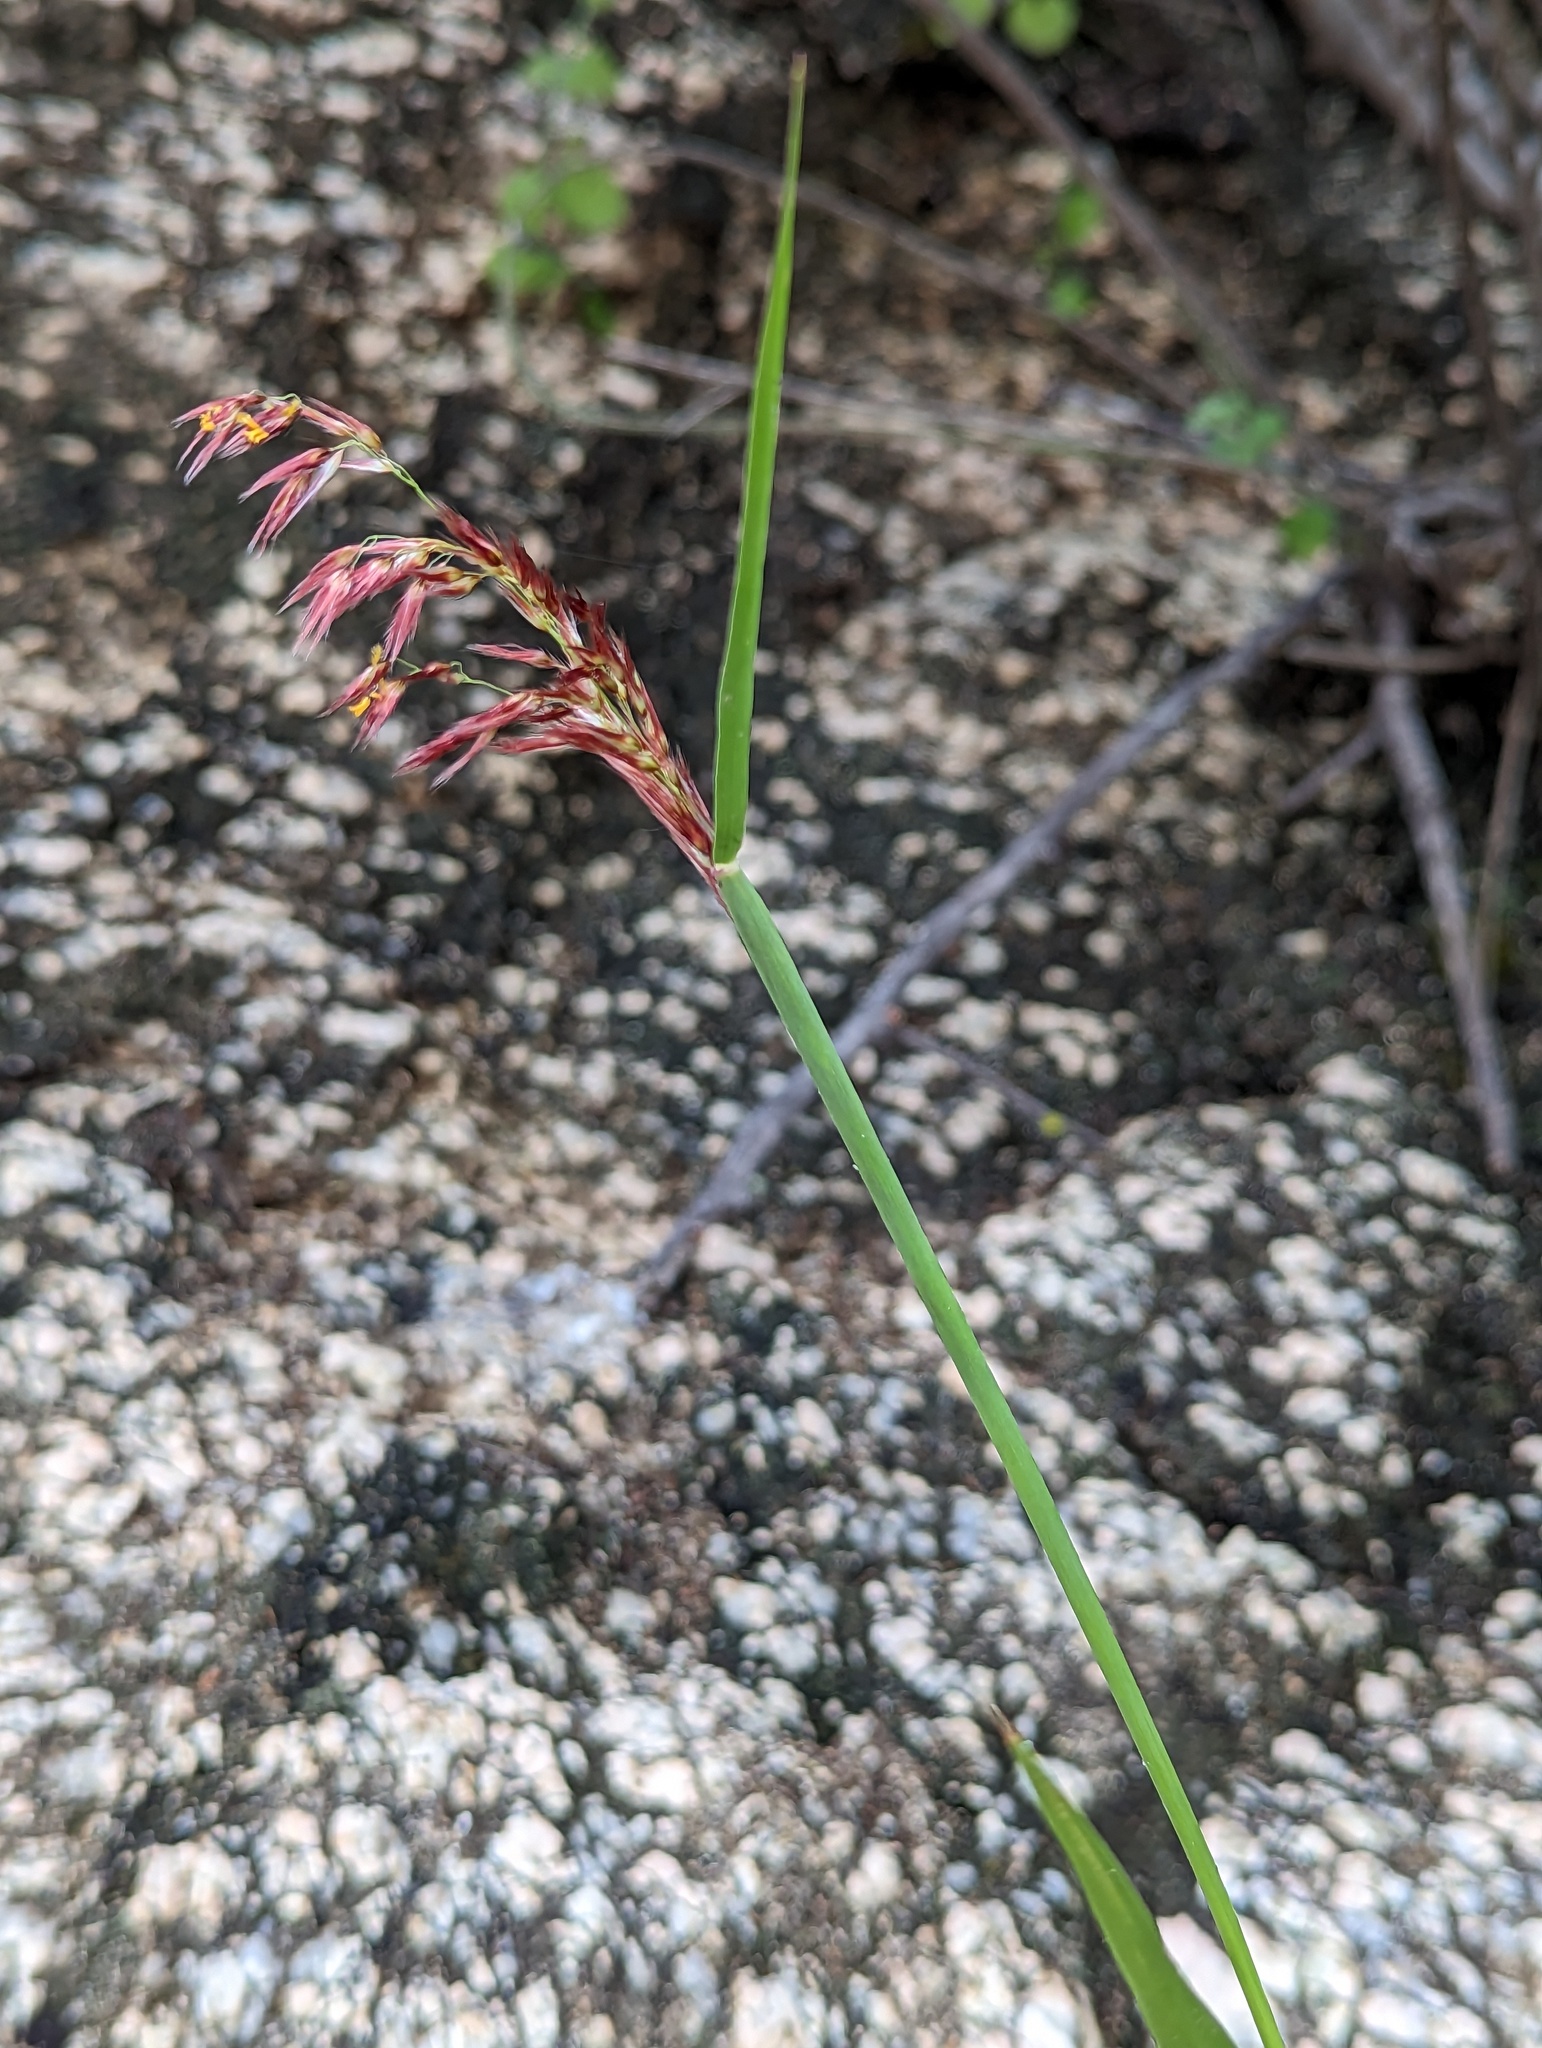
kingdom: Plantae
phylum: Tracheophyta
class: Liliopsida
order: Poales
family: Poaceae
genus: Melinis
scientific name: Melinis repens
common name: Rose natal grass
